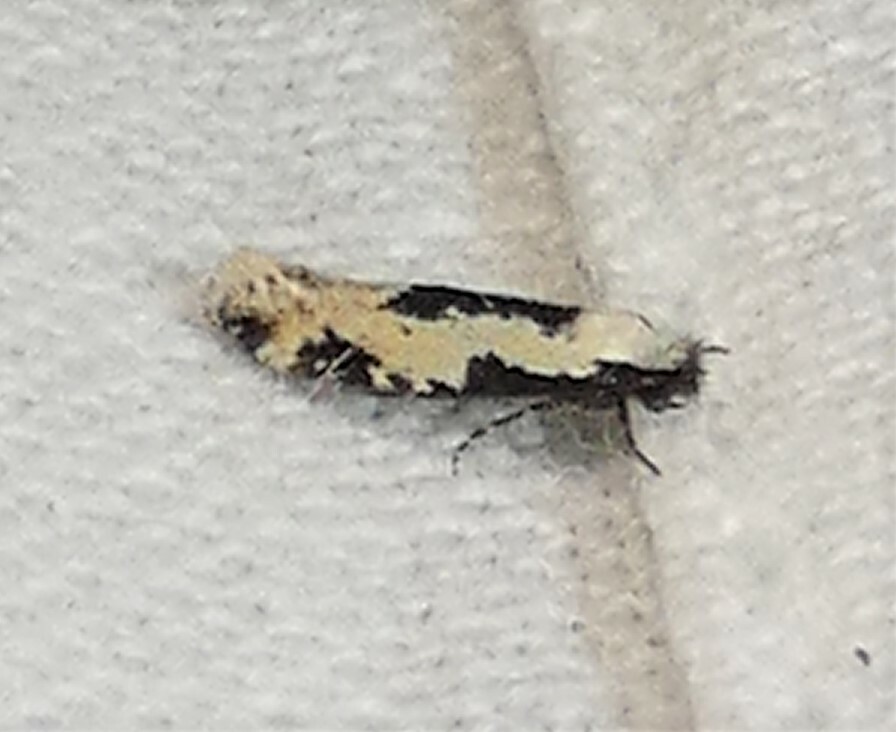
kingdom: Animalia
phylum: Arthropoda
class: Insecta
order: Lepidoptera
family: Meessiidae
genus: Mea
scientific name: Mea bipunctella
